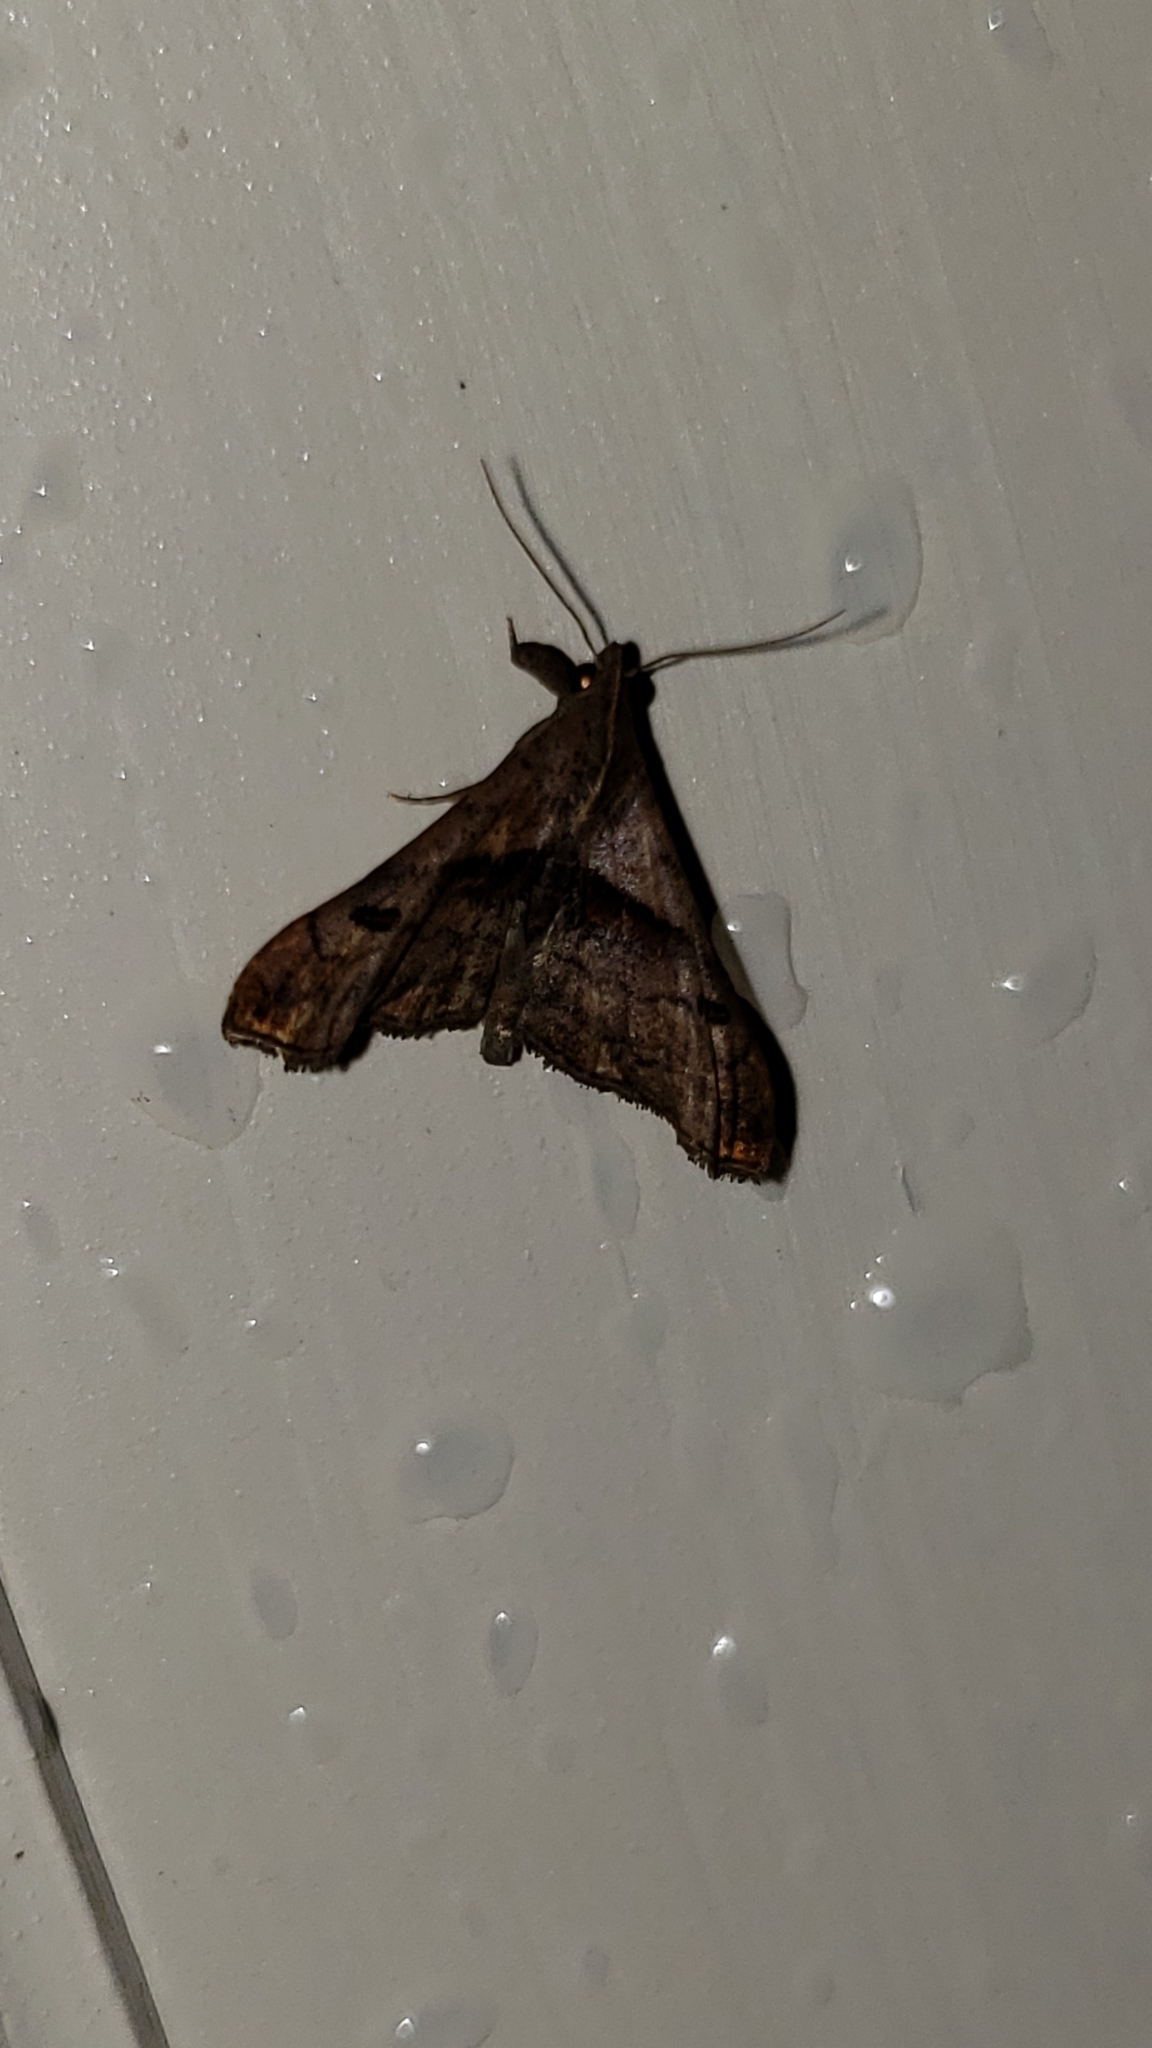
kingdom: Animalia
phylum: Arthropoda
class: Insecta
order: Lepidoptera
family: Erebidae
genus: Palthis
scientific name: Palthis angulalis
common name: Dark-spotted palthis moth
